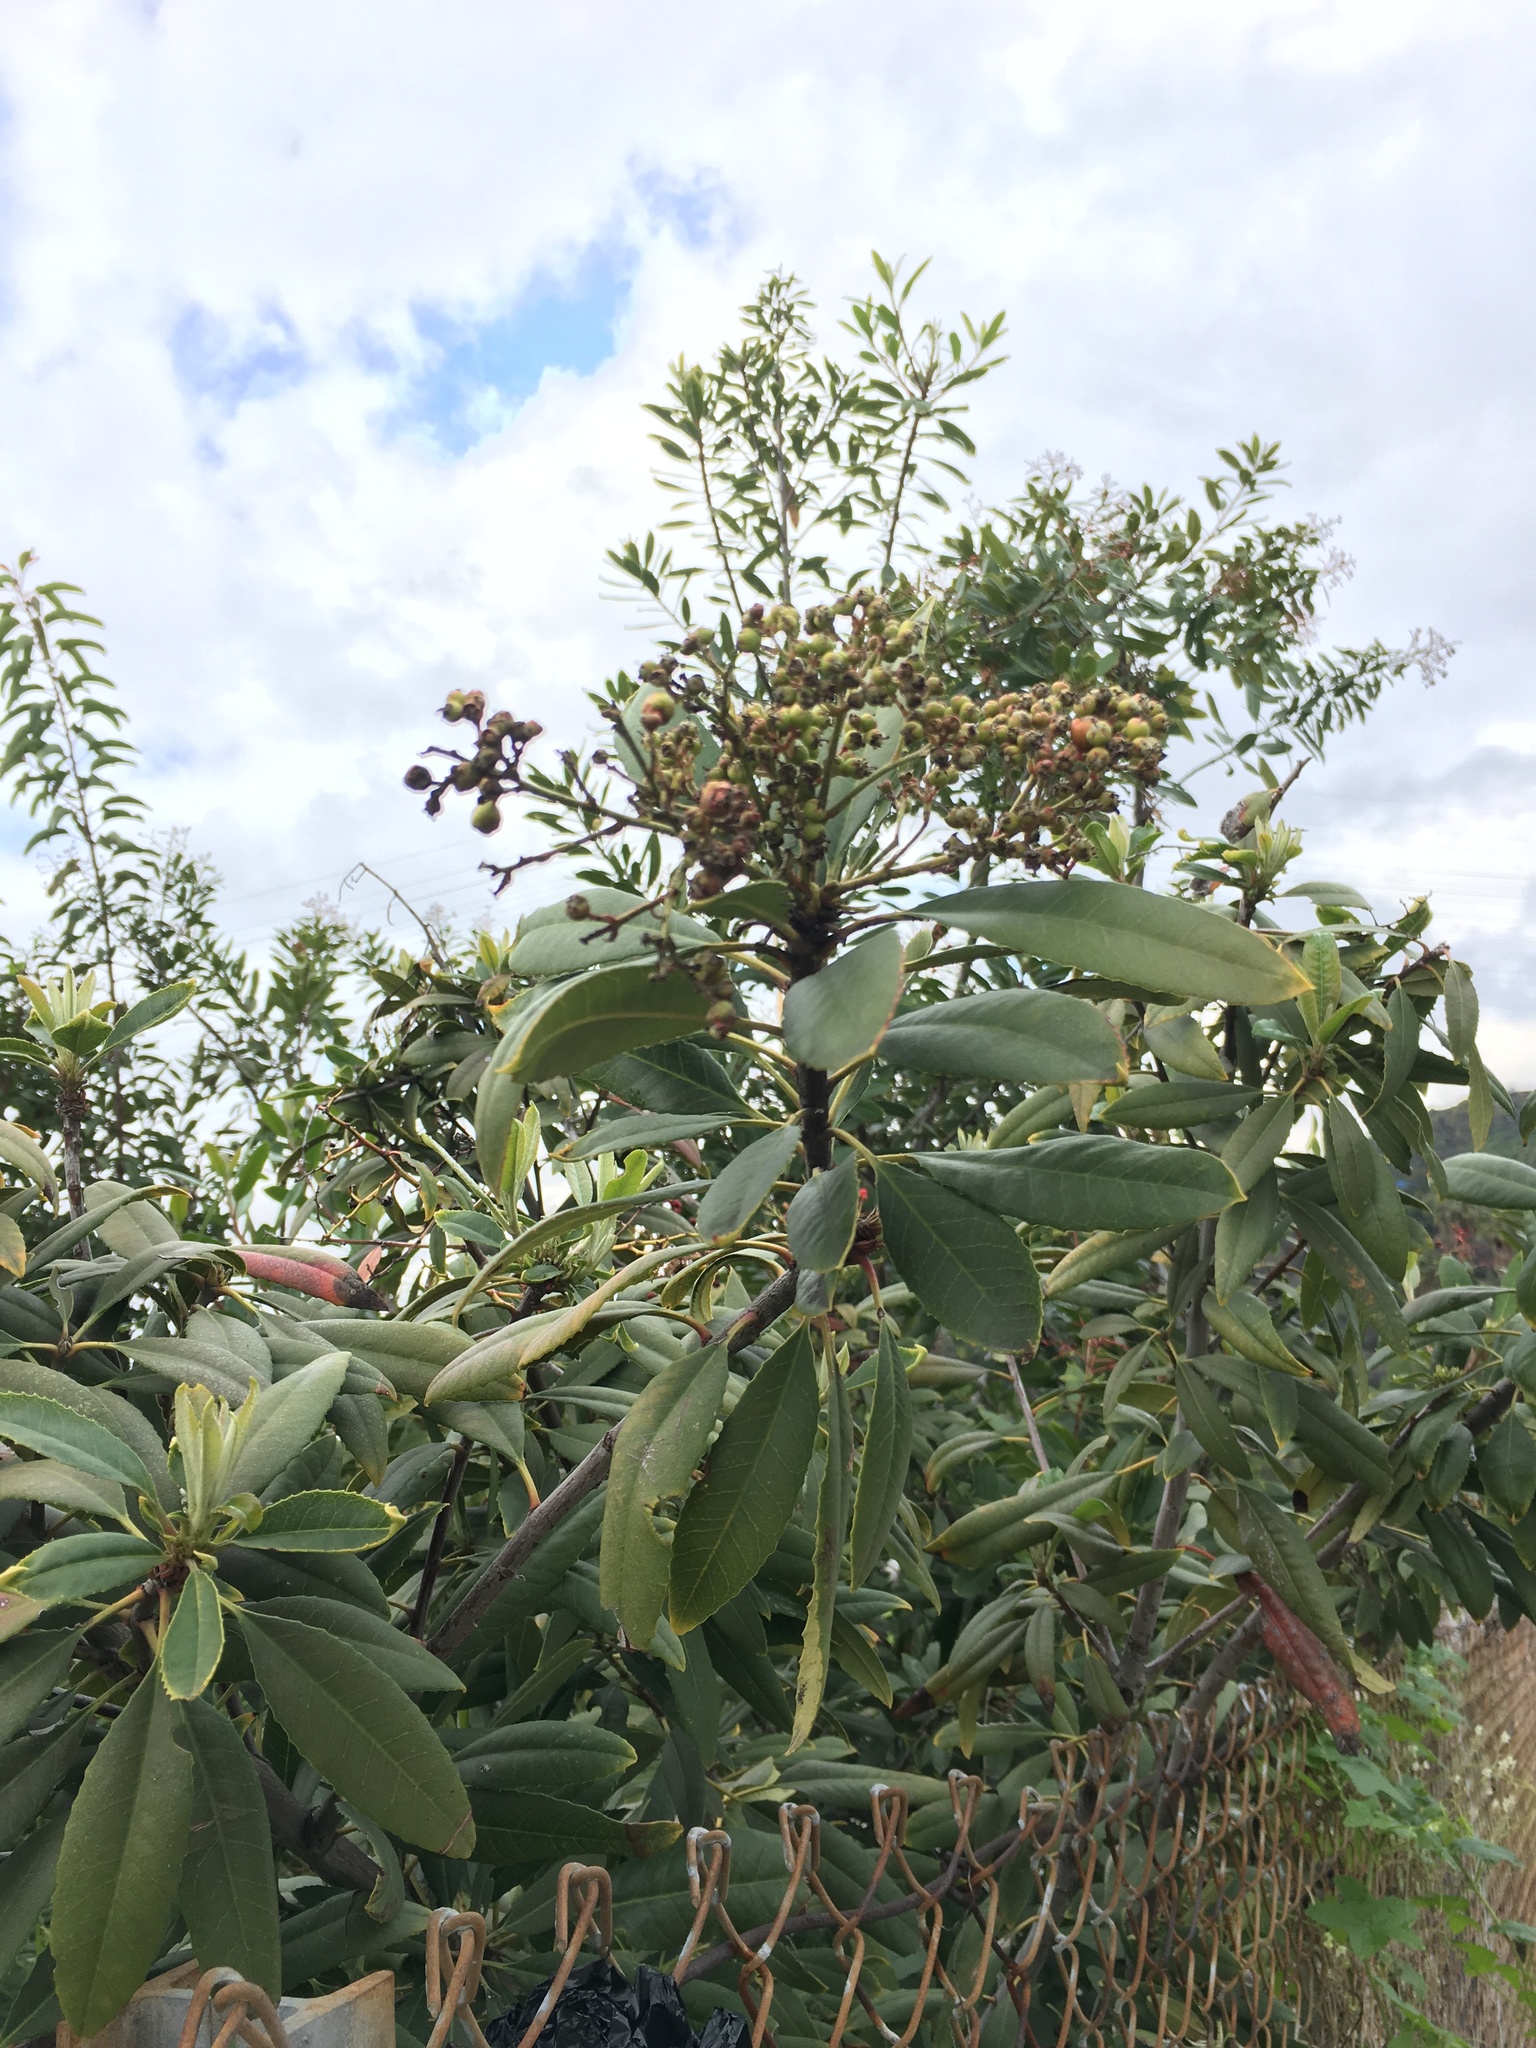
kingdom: Plantae
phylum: Tracheophyta
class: Magnoliopsida
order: Rosales
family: Rosaceae
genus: Heteromeles
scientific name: Heteromeles arbutifolia
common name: California-holly
